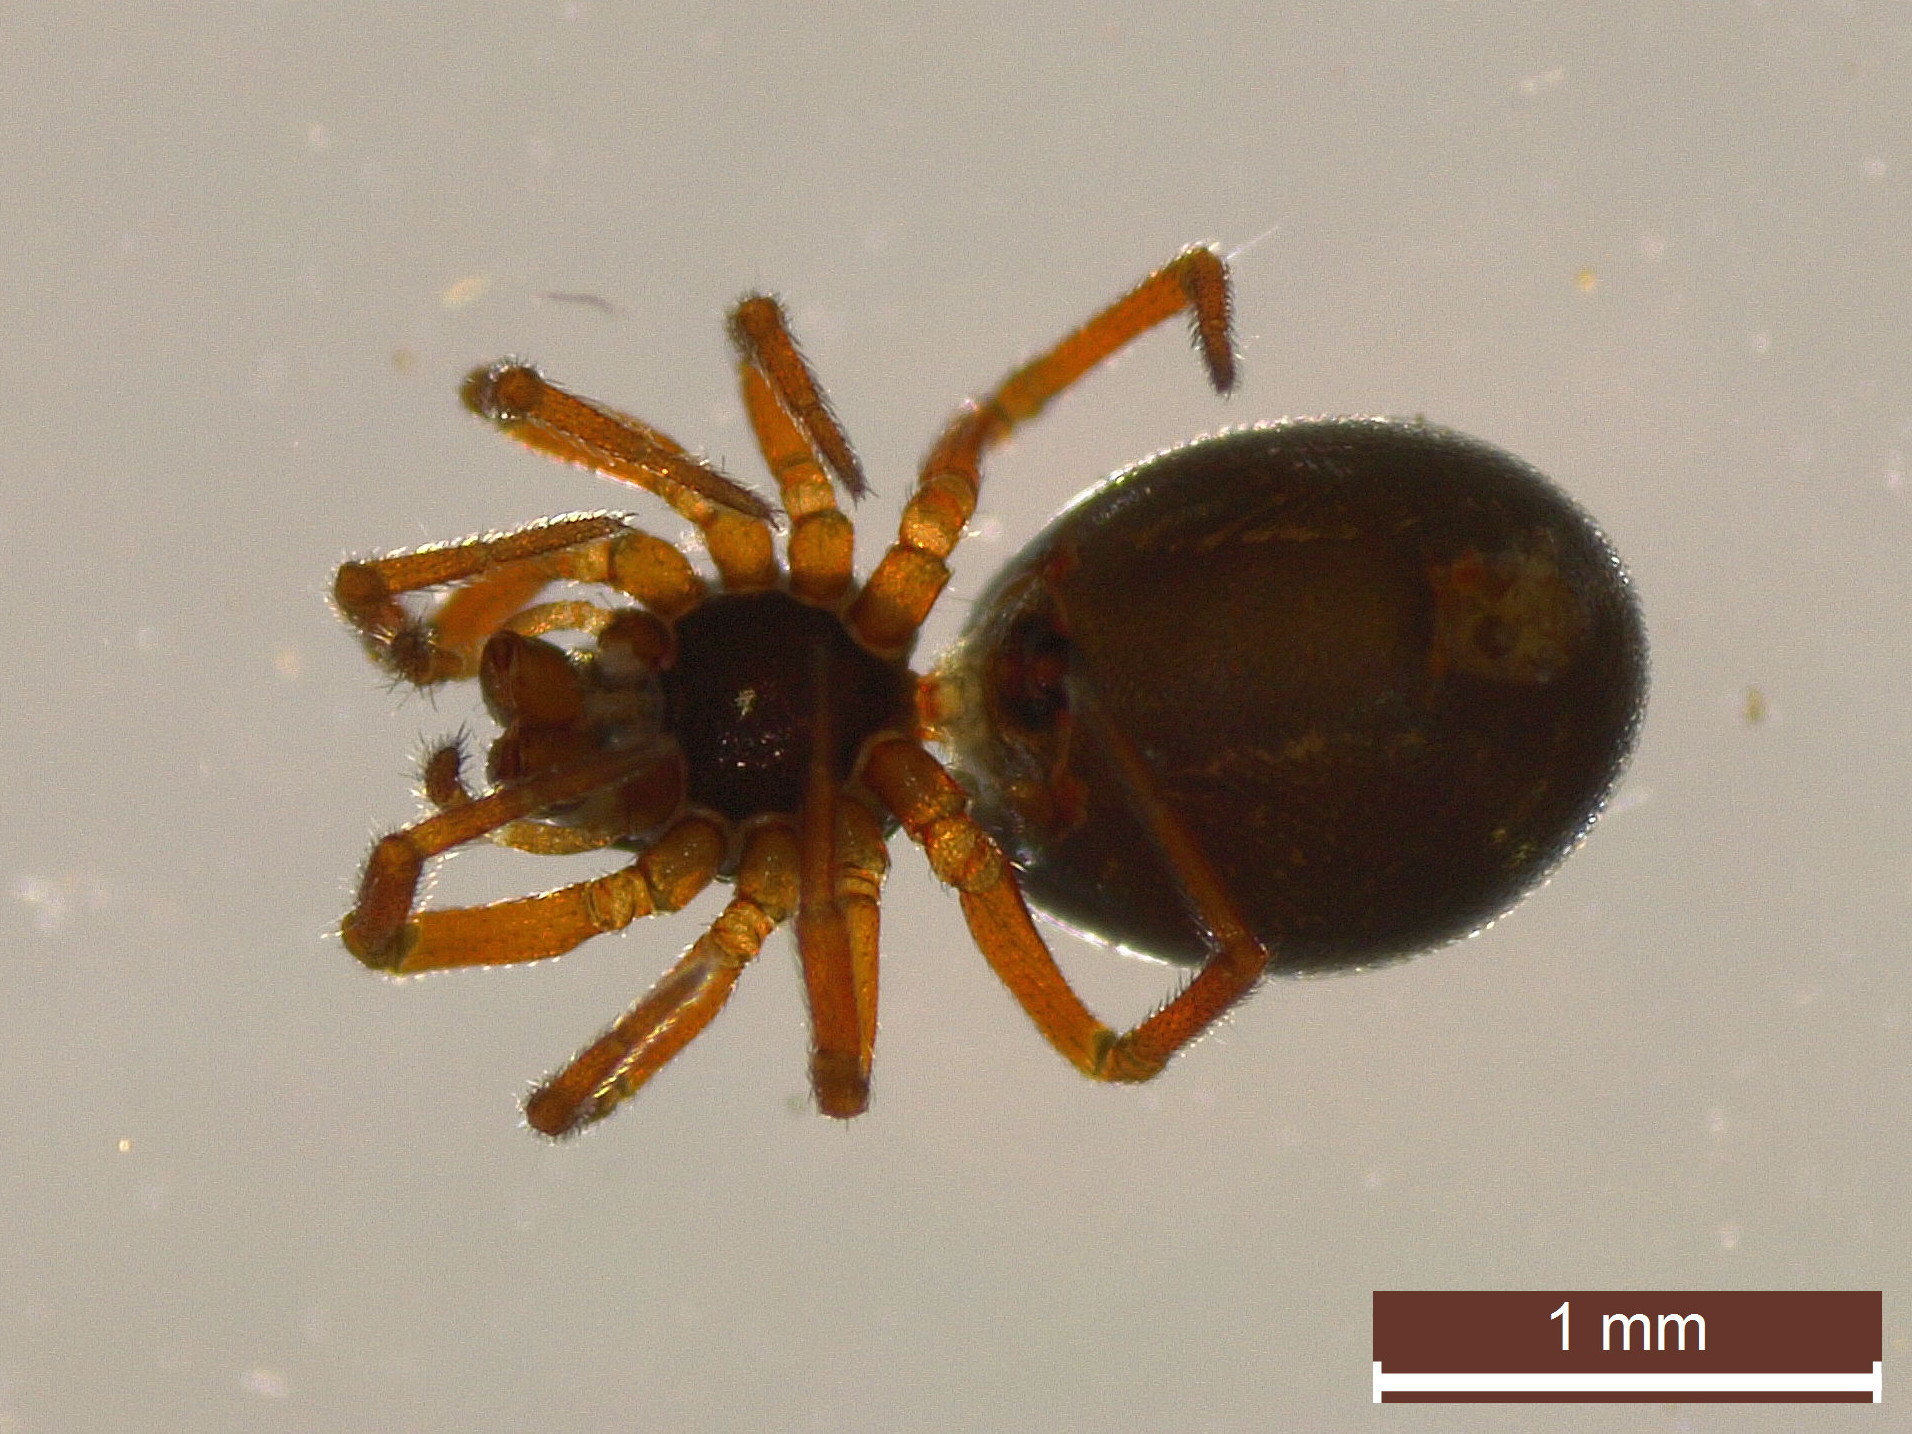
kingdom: Animalia
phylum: Arthropoda
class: Arachnida
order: Araneae
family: Linyphiidae
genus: Silometopus
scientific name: Silometopus reussi
